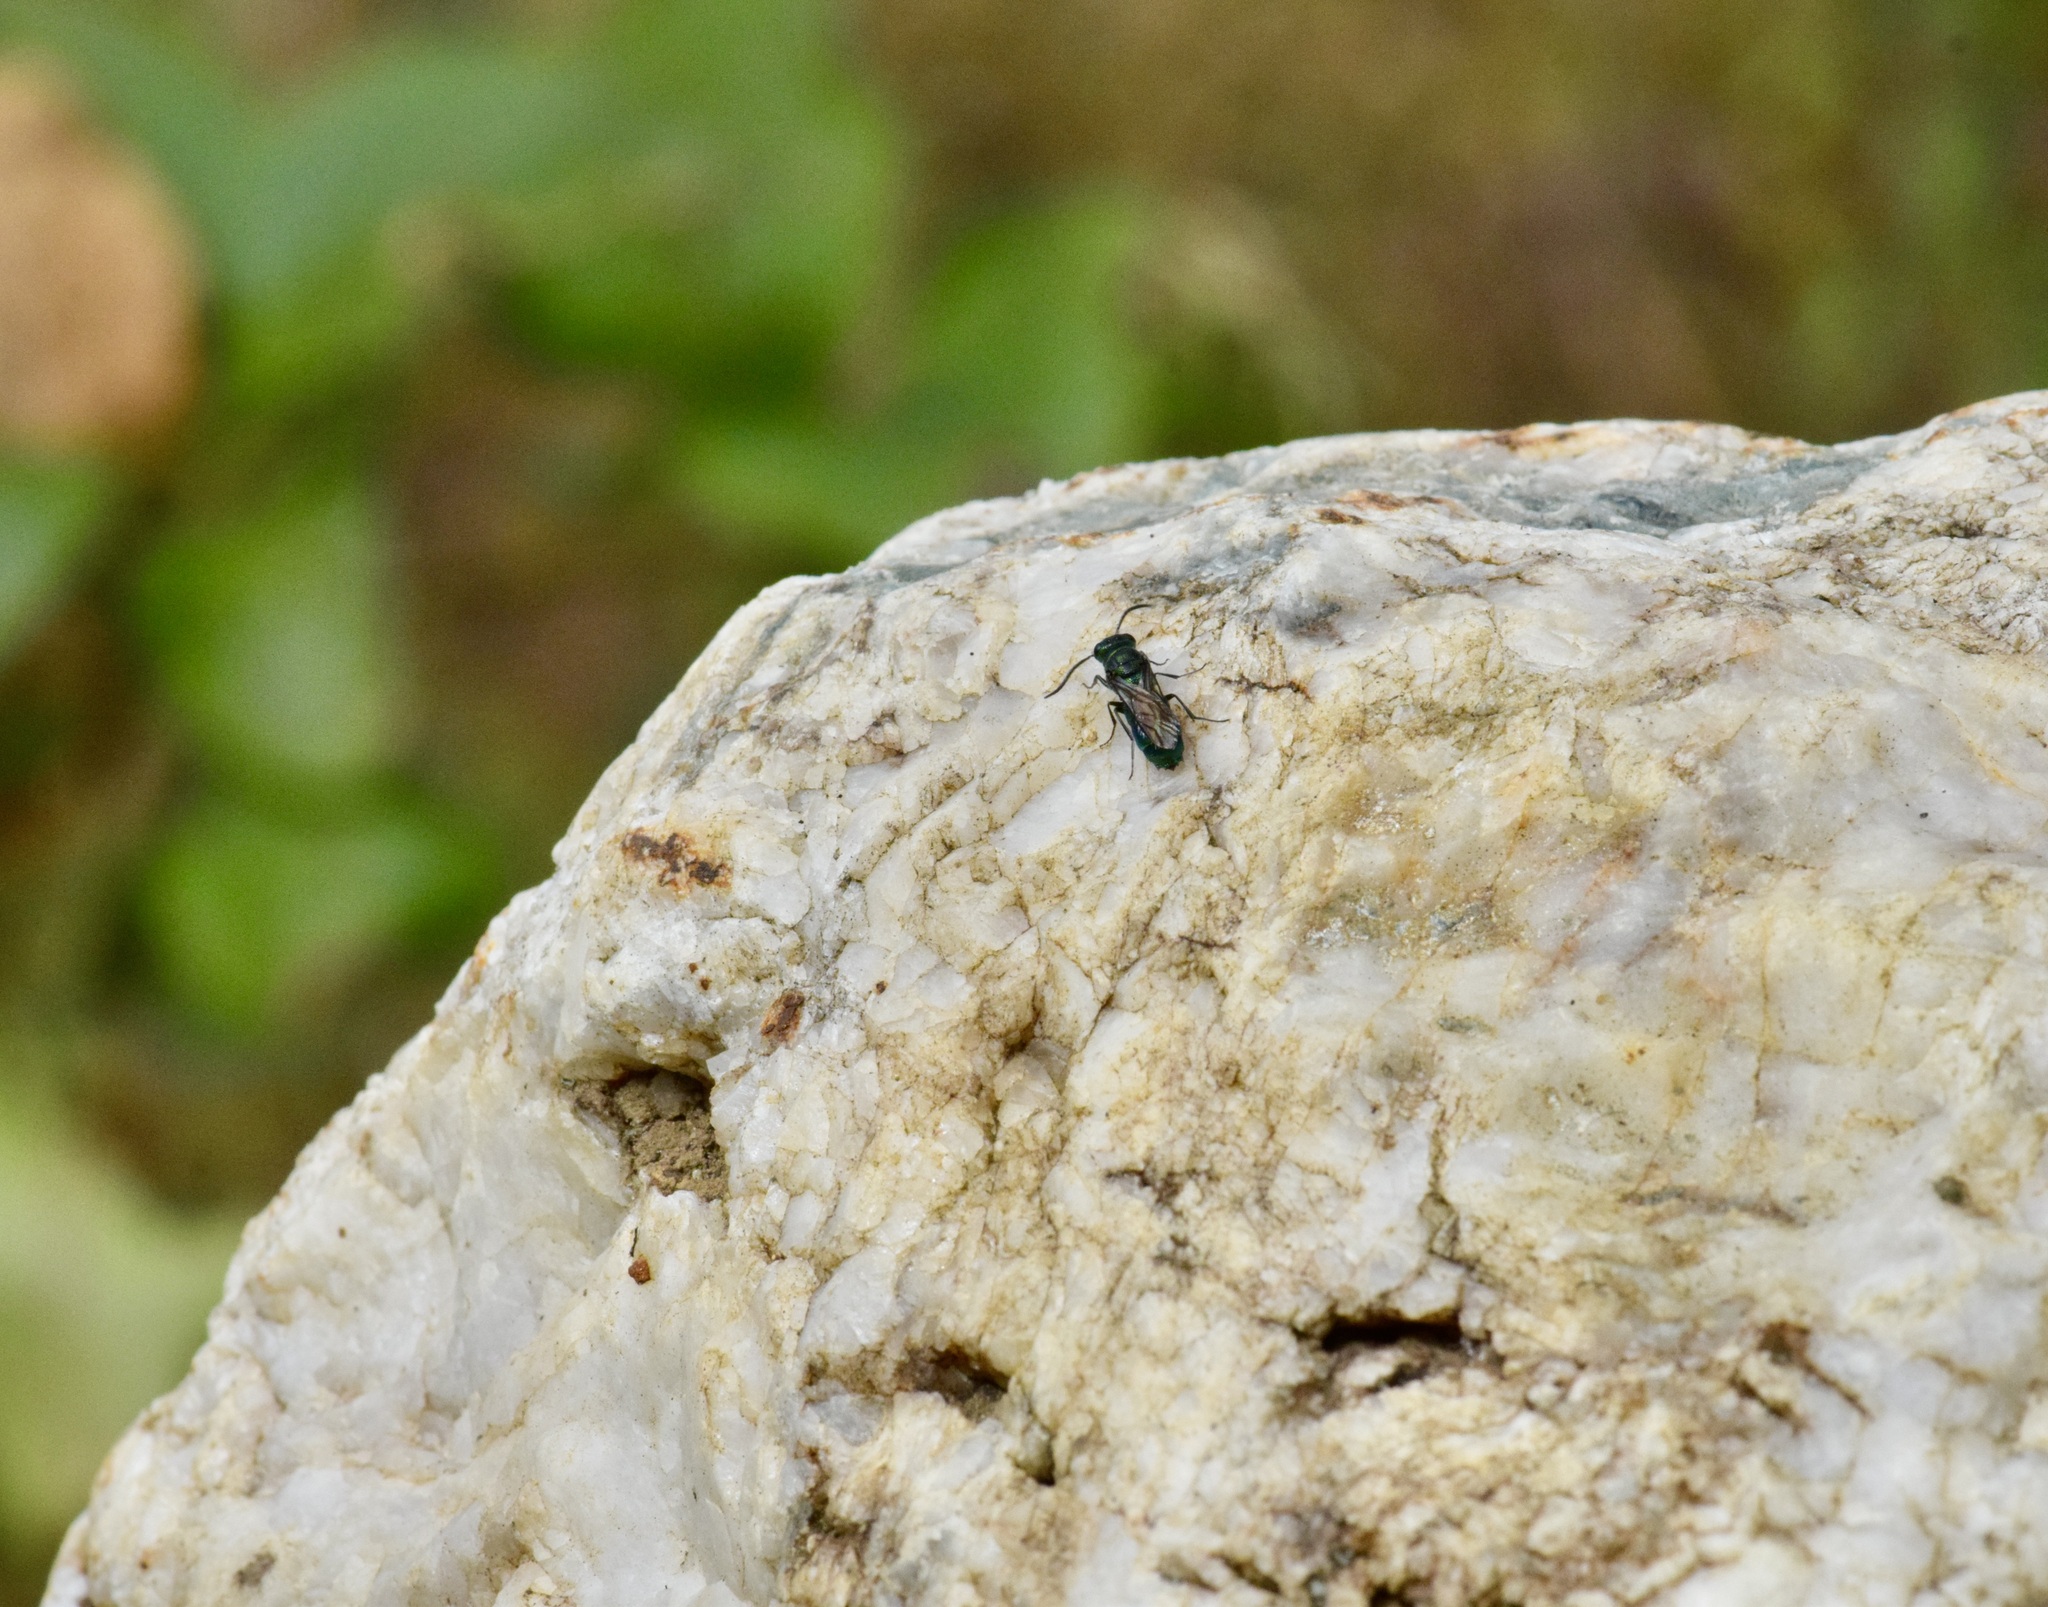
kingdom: Animalia
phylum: Arthropoda
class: Insecta
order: Hymenoptera
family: Chrysididae
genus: Chrysis
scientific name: Chrysis
